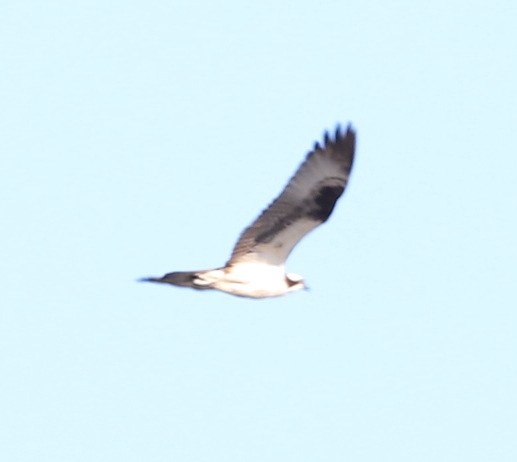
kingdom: Animalia
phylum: Chordata
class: Aves
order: Accipitriformes
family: Pandionidae
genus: Pandion
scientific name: Pandion haliaetus
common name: Osprey
